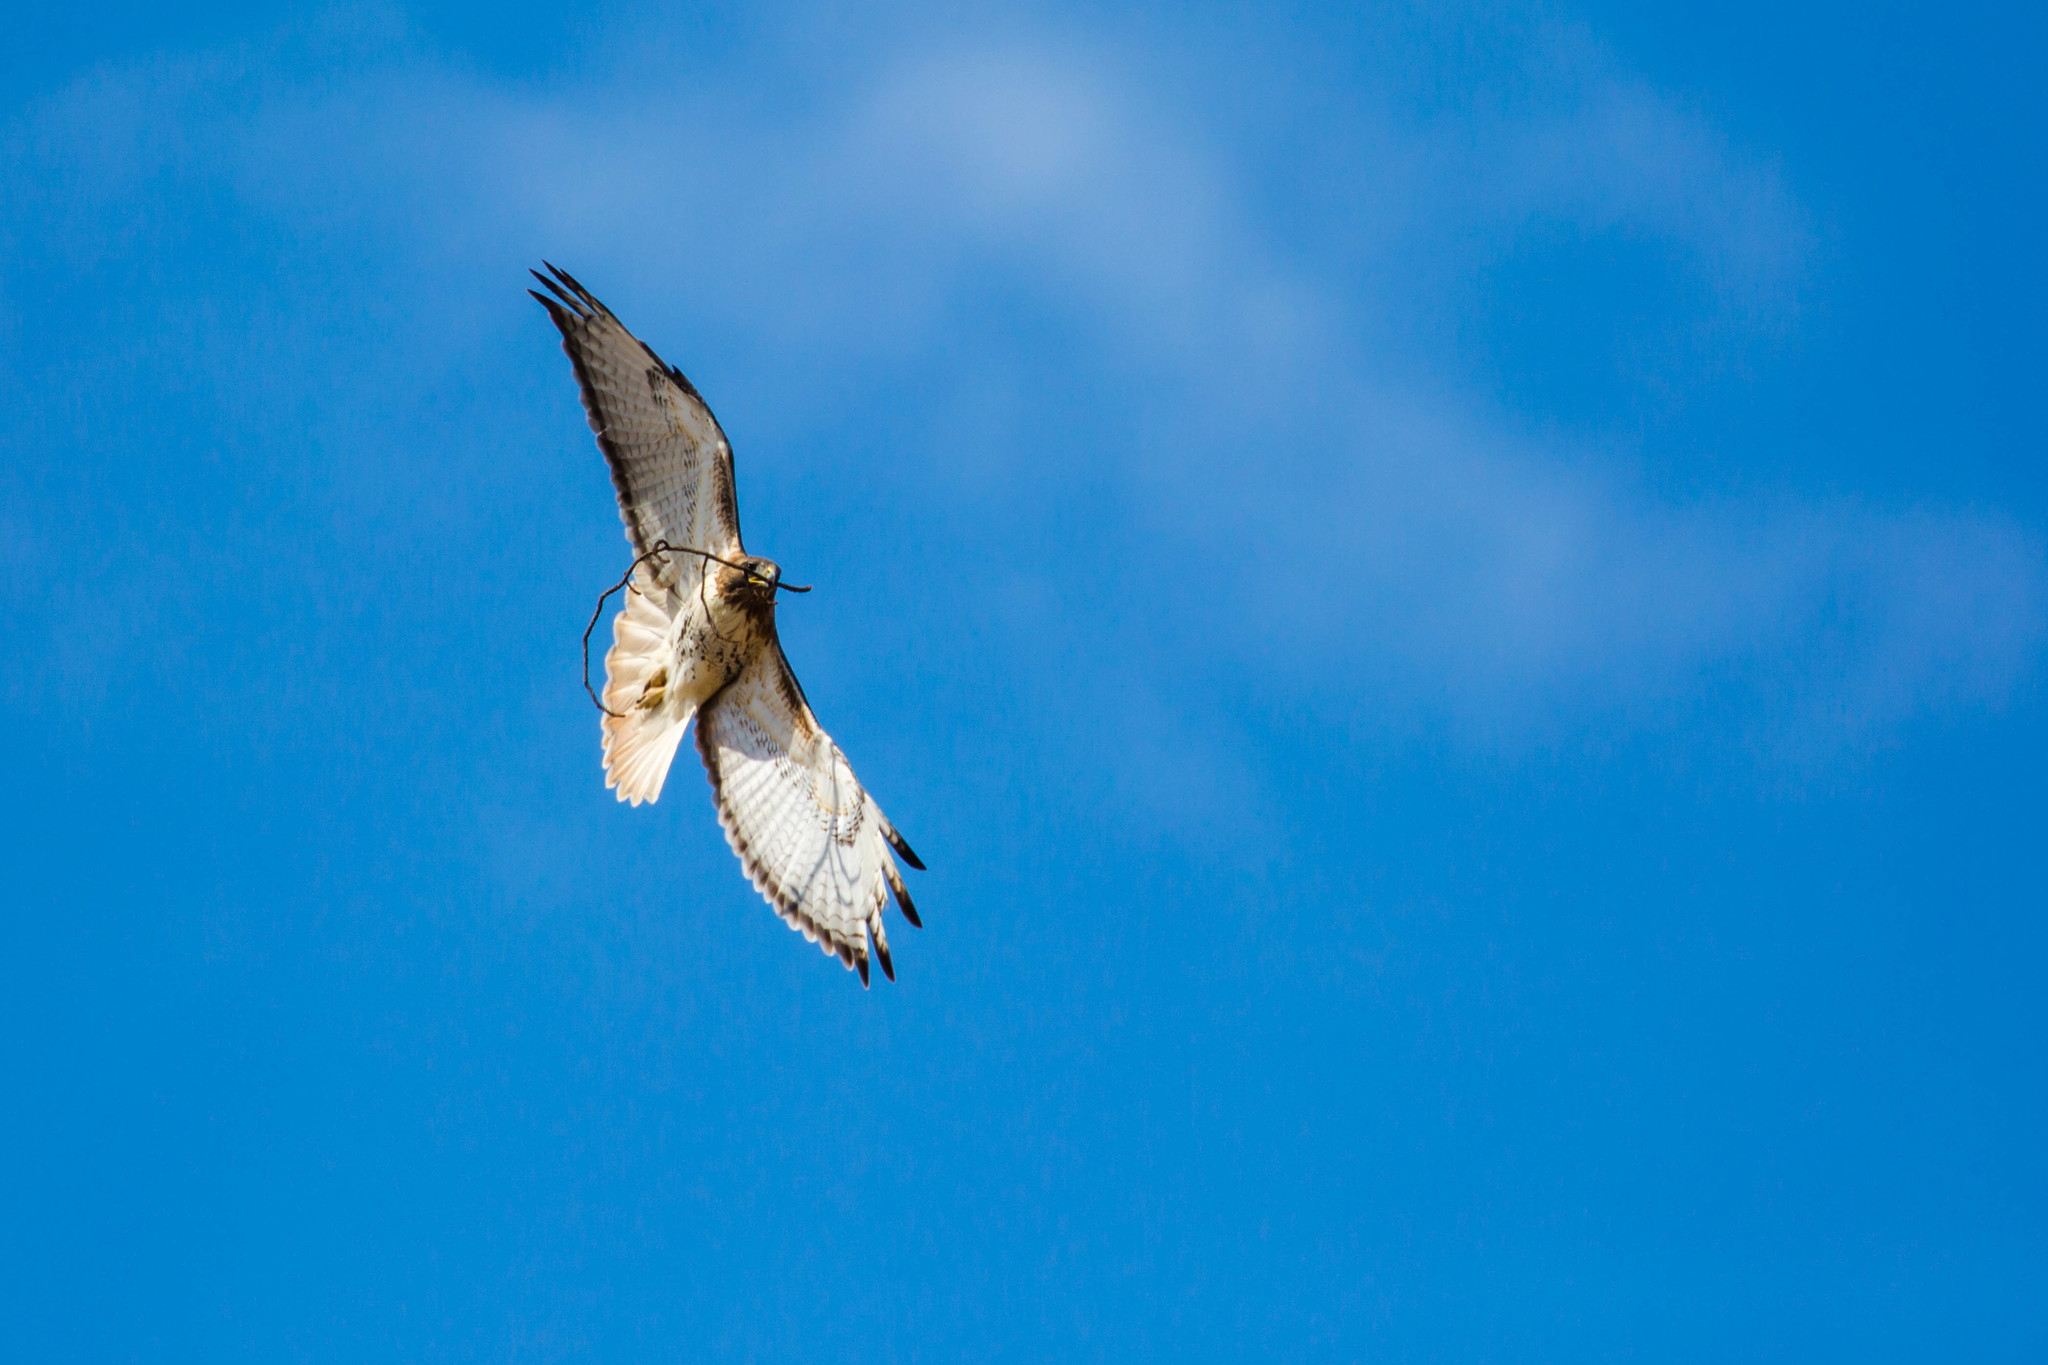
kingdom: Animalia
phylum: Chordata
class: Aves
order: Accipitriformes
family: Accipitridae
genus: Buteo
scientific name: Buteo jamaicensis
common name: Red-tailed hawk
